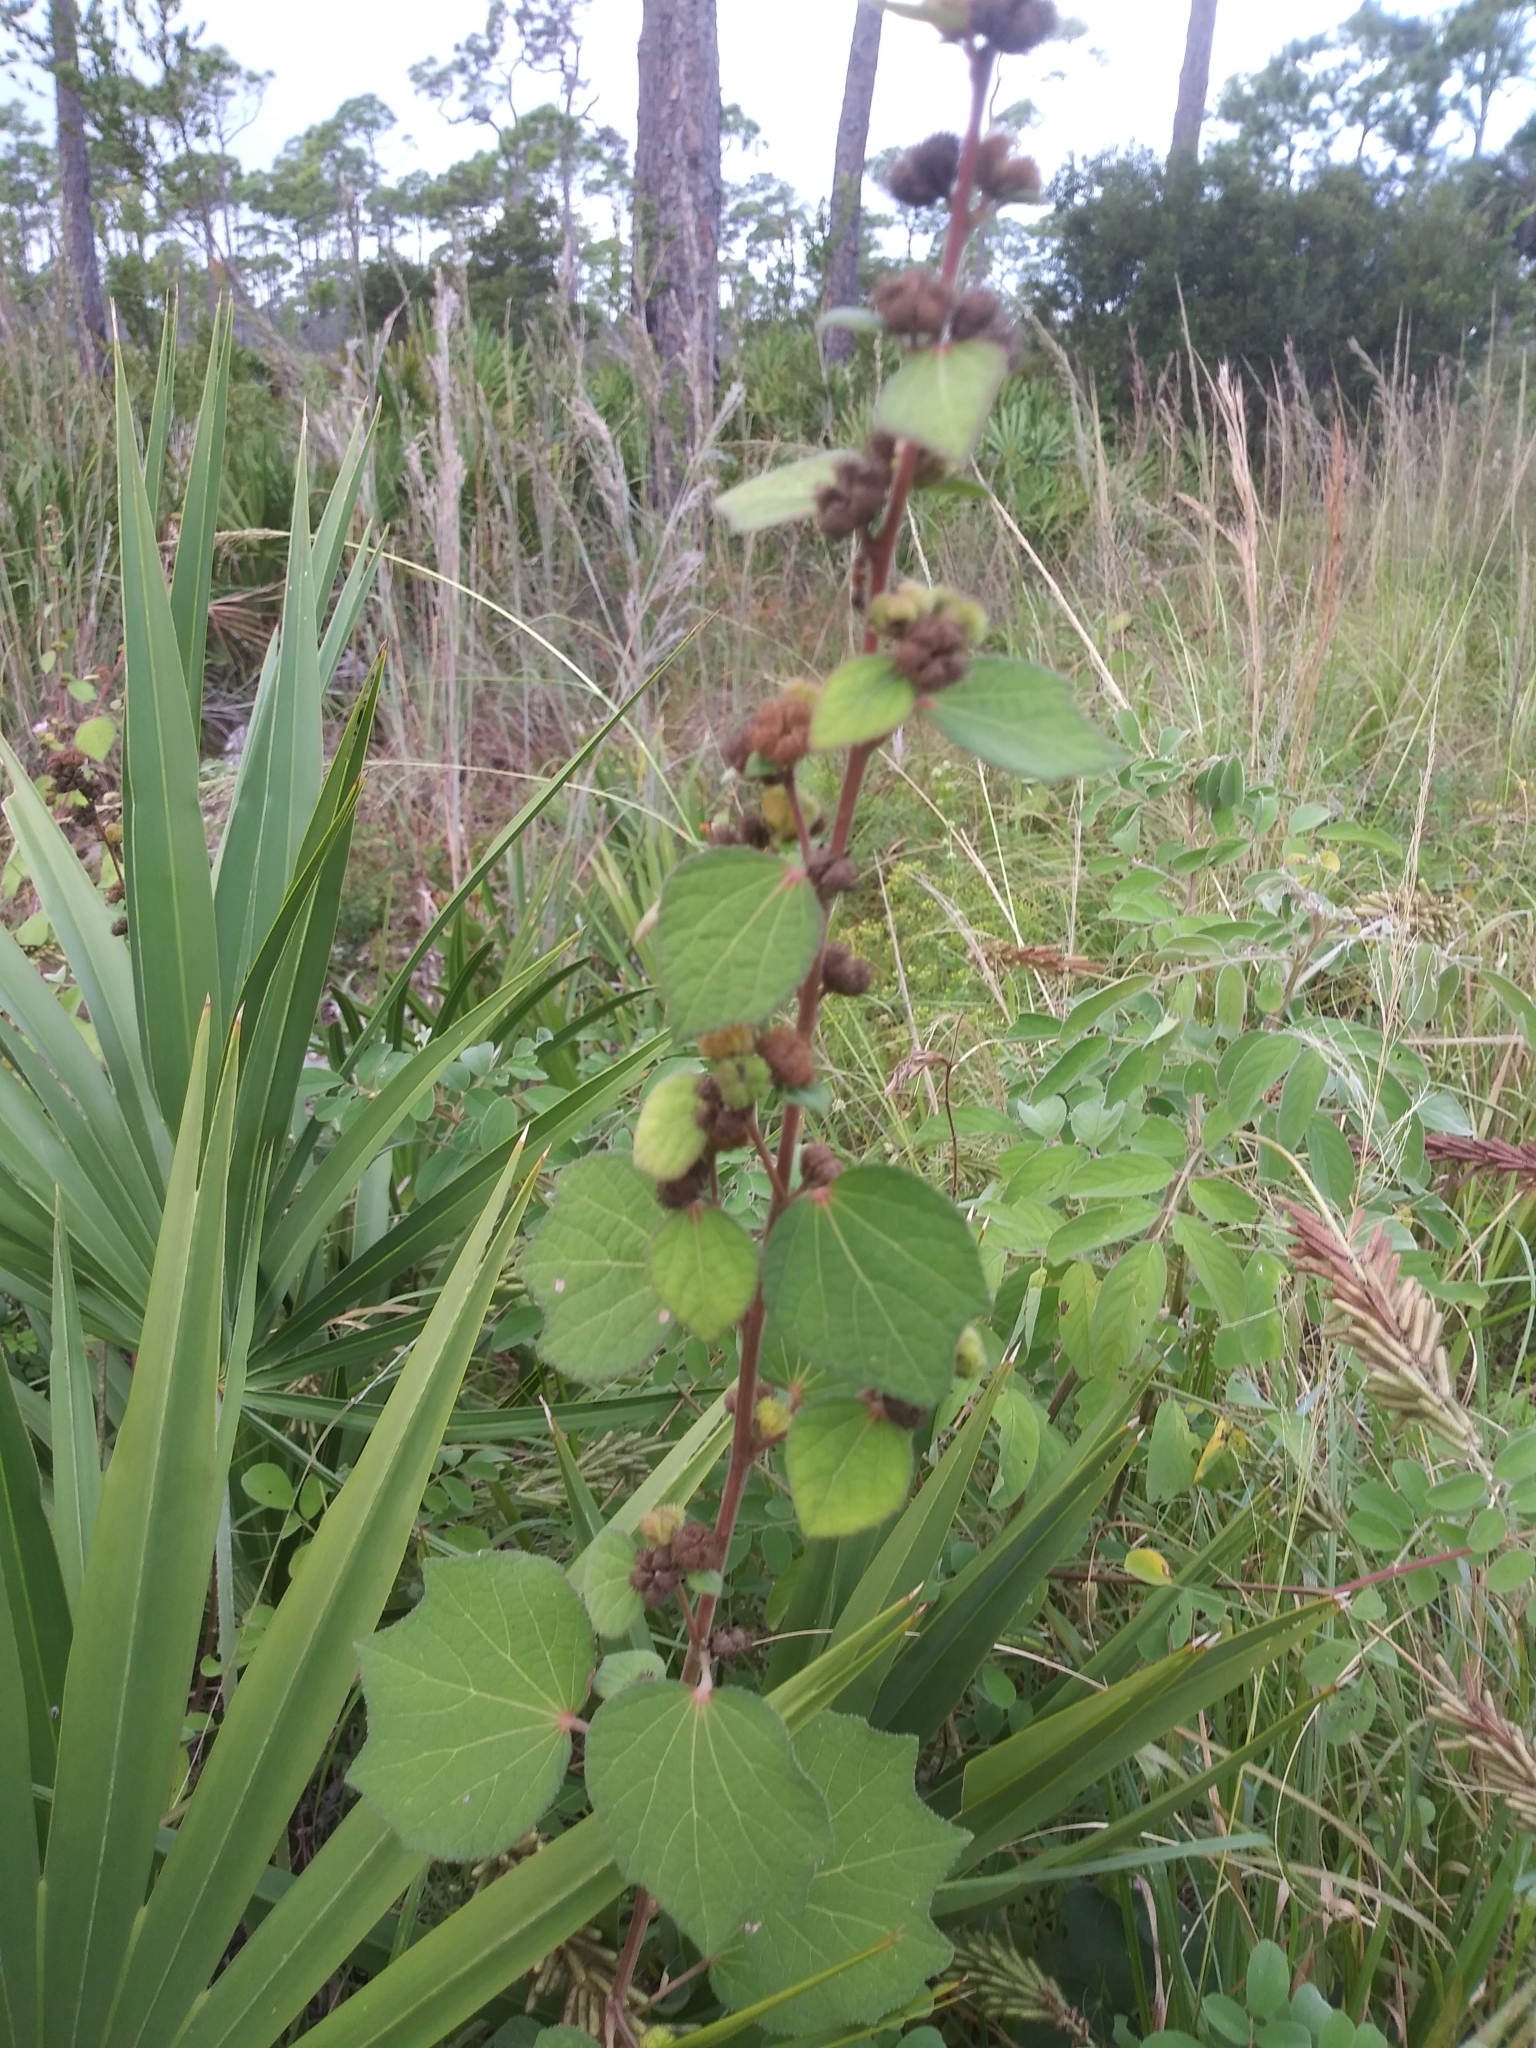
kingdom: Plantae
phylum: Tracheophyta
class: Magnoliopsida
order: Malvales
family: Malvaceae
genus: Urena
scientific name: Urena lobata
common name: Caesarweed
